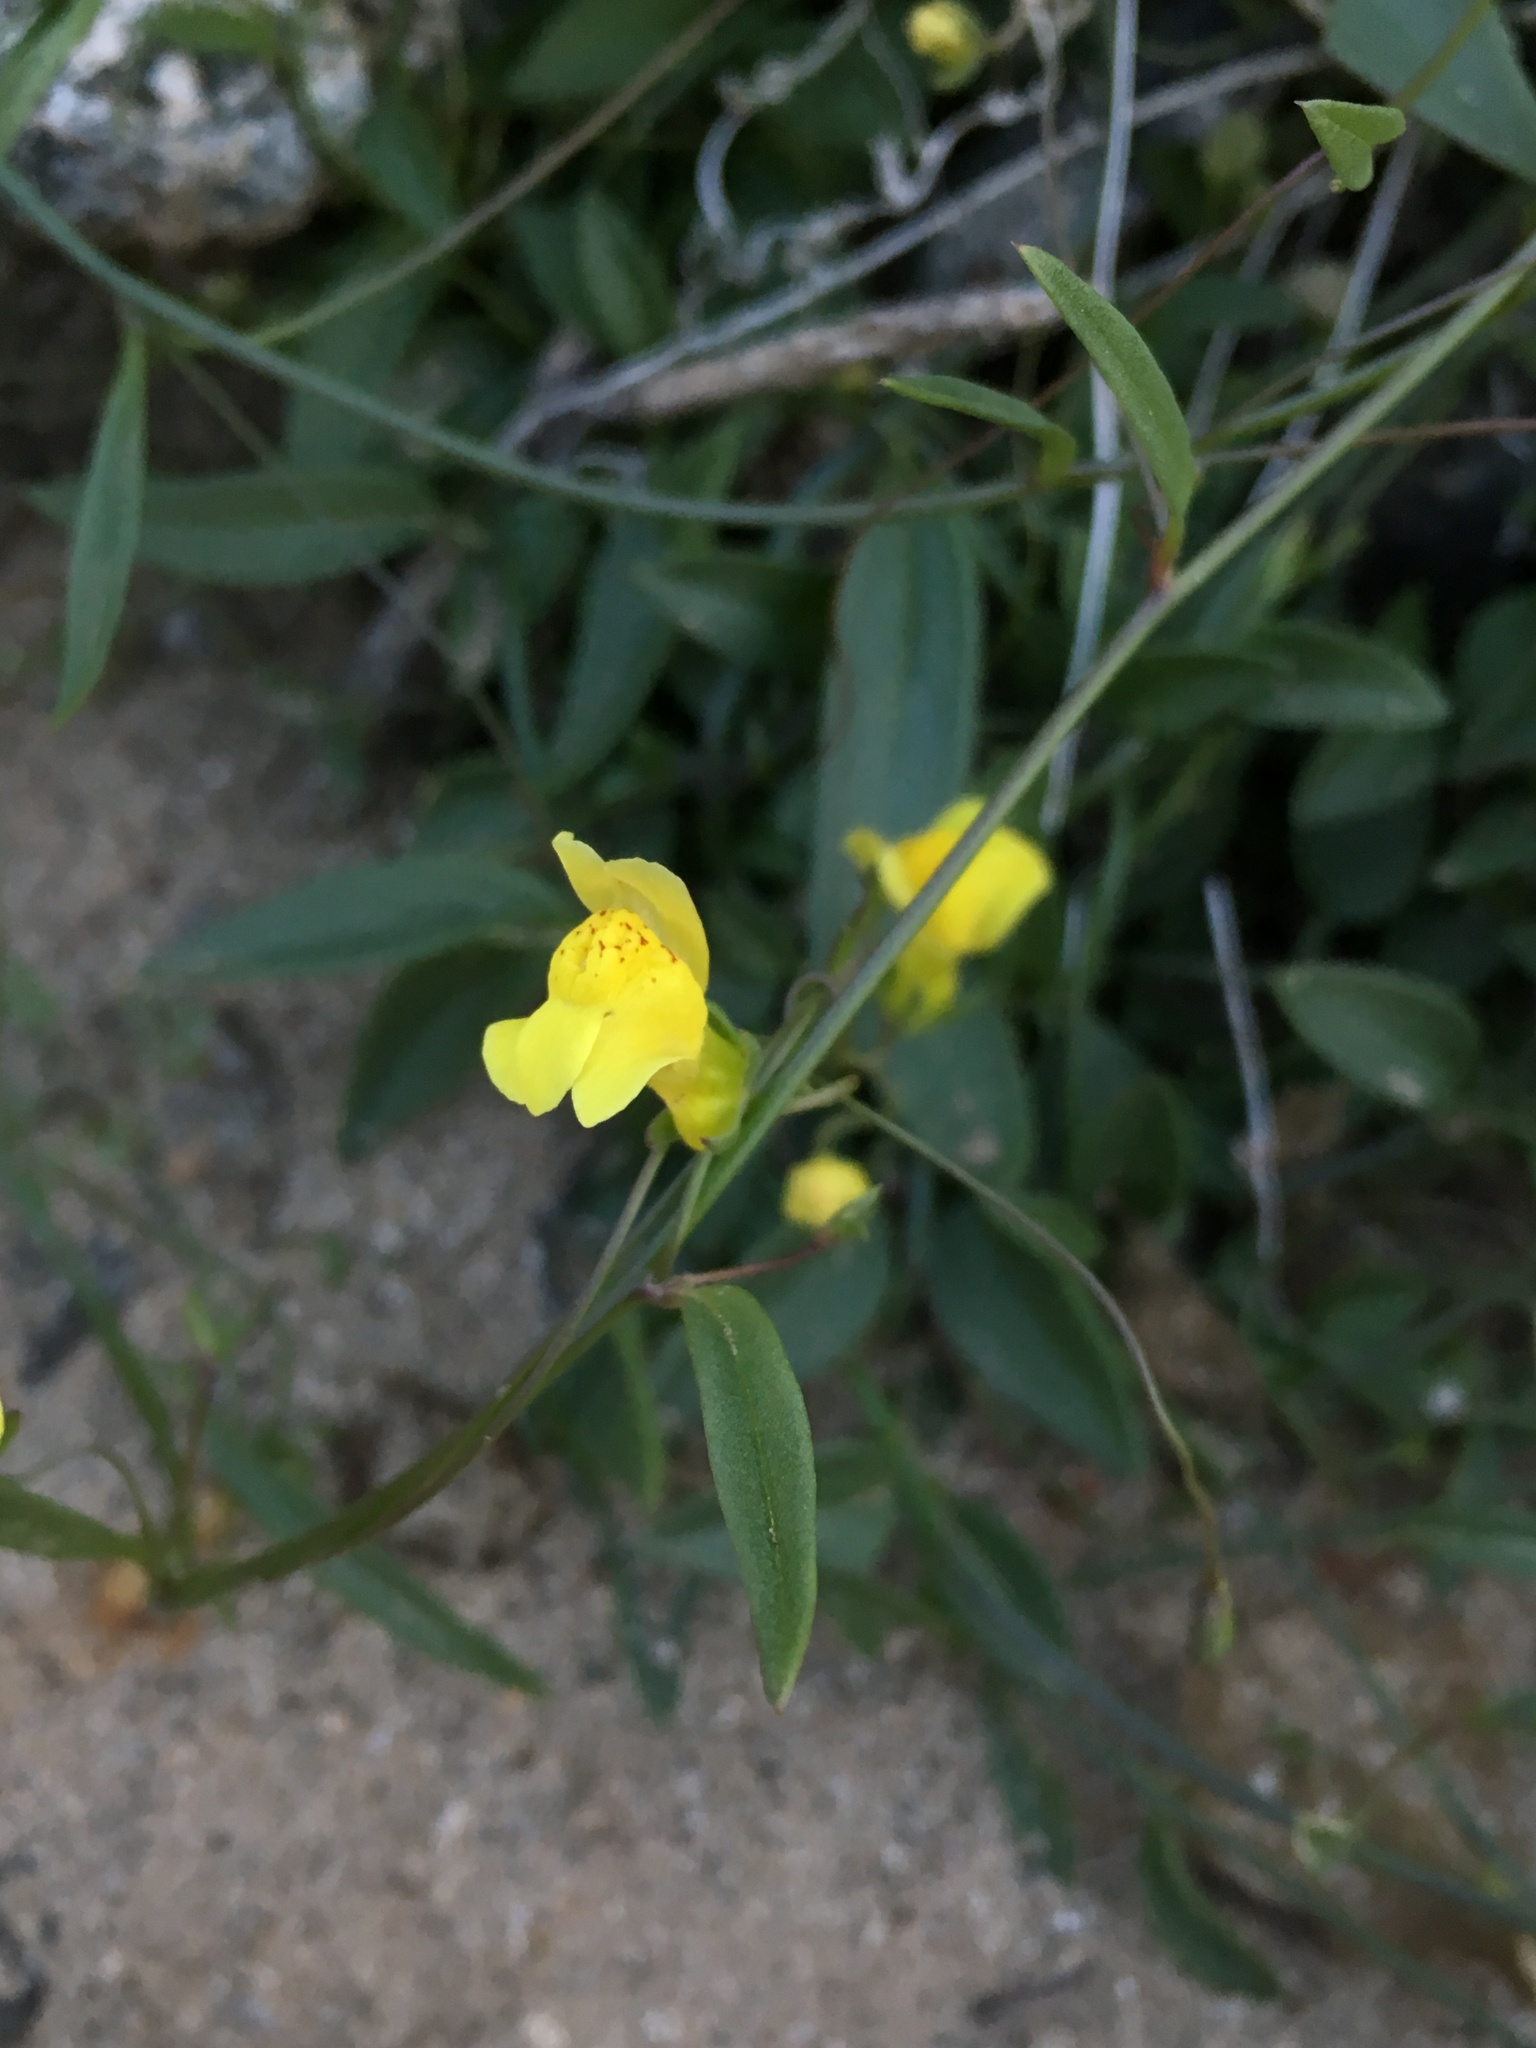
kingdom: Plantae
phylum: Tracheophyta
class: Magnoliopsida
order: Lamiales
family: Plantaginaceae
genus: Neogaerrhinum
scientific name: Neogaerrhinum filipes
